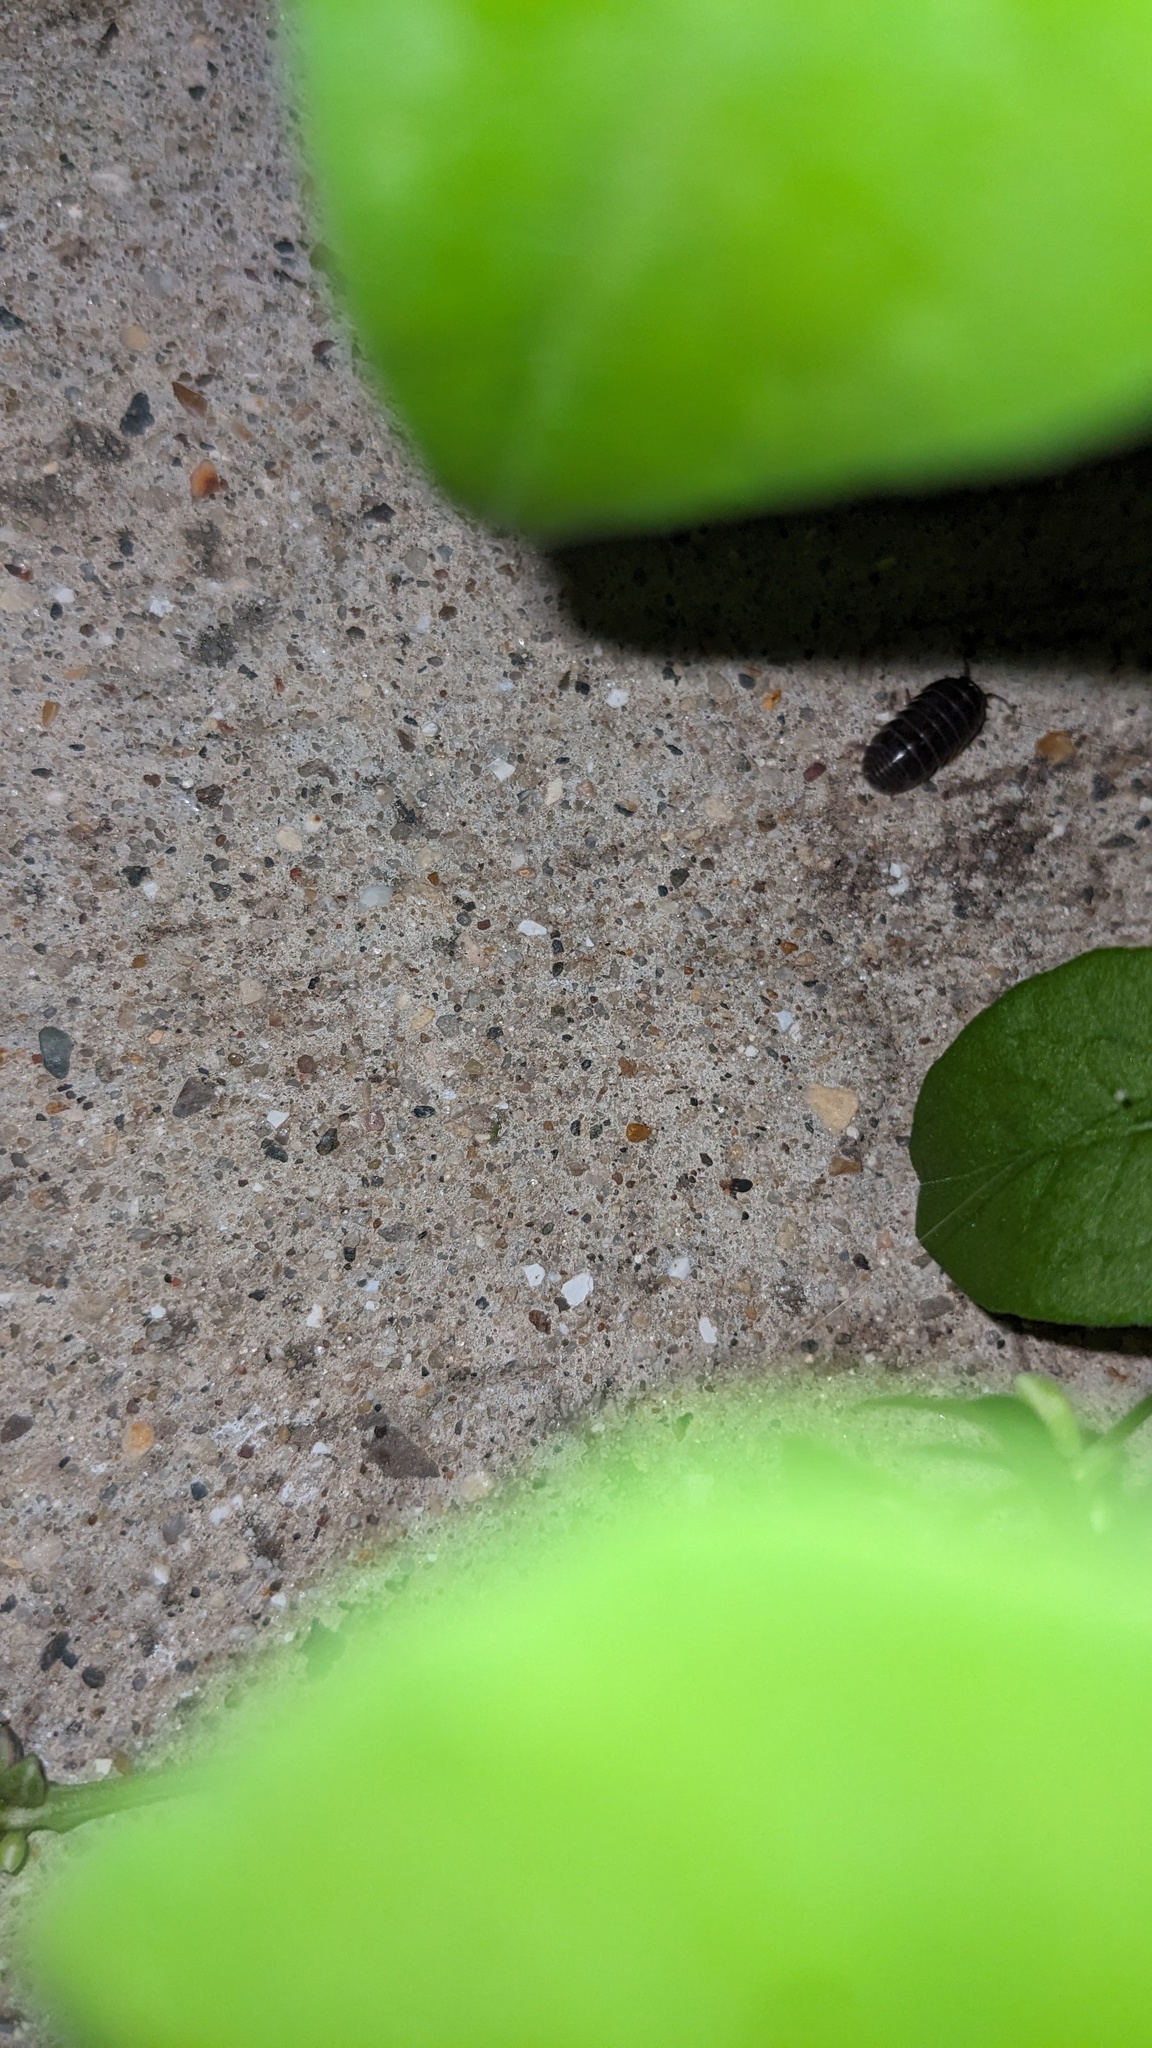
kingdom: Animalia
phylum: Arthropoda
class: Malacostraca
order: Isopoda
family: Armadillidiidae
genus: Armadillidium
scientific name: Armadillidium vulgare
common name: Common pill woodlouse
